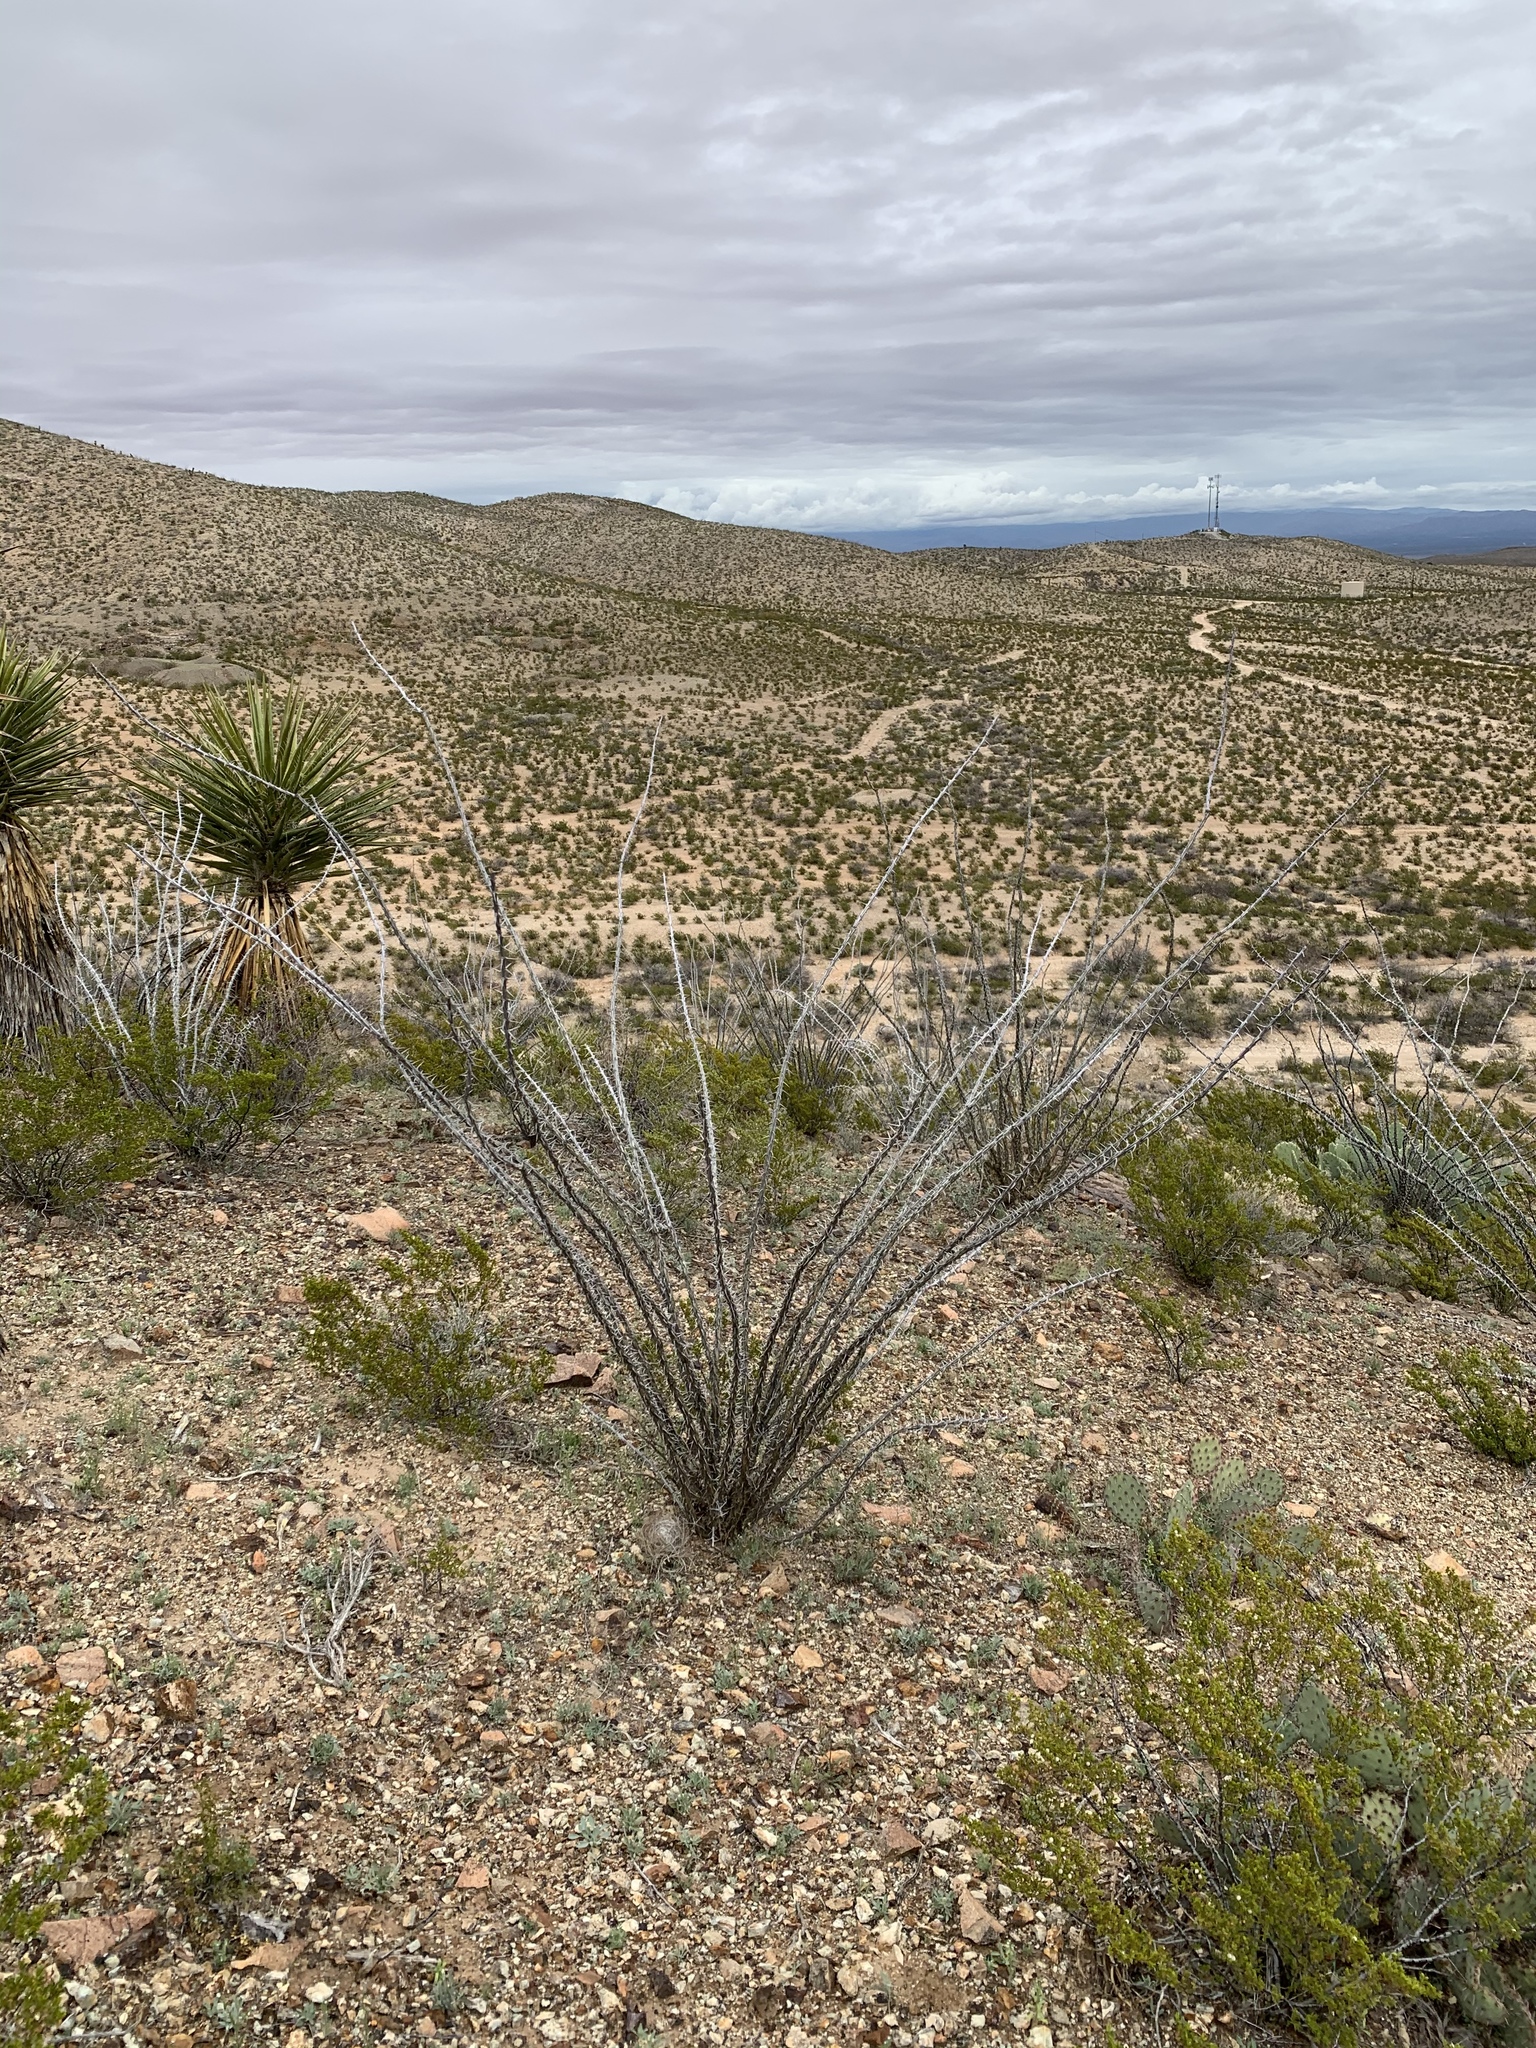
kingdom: Plantae
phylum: Tracheophyta
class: Magnoliopsida
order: Ericales
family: Fouquieriaceae
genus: Fouquieria
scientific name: Fouquieria splendens
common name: Vine-cactus
